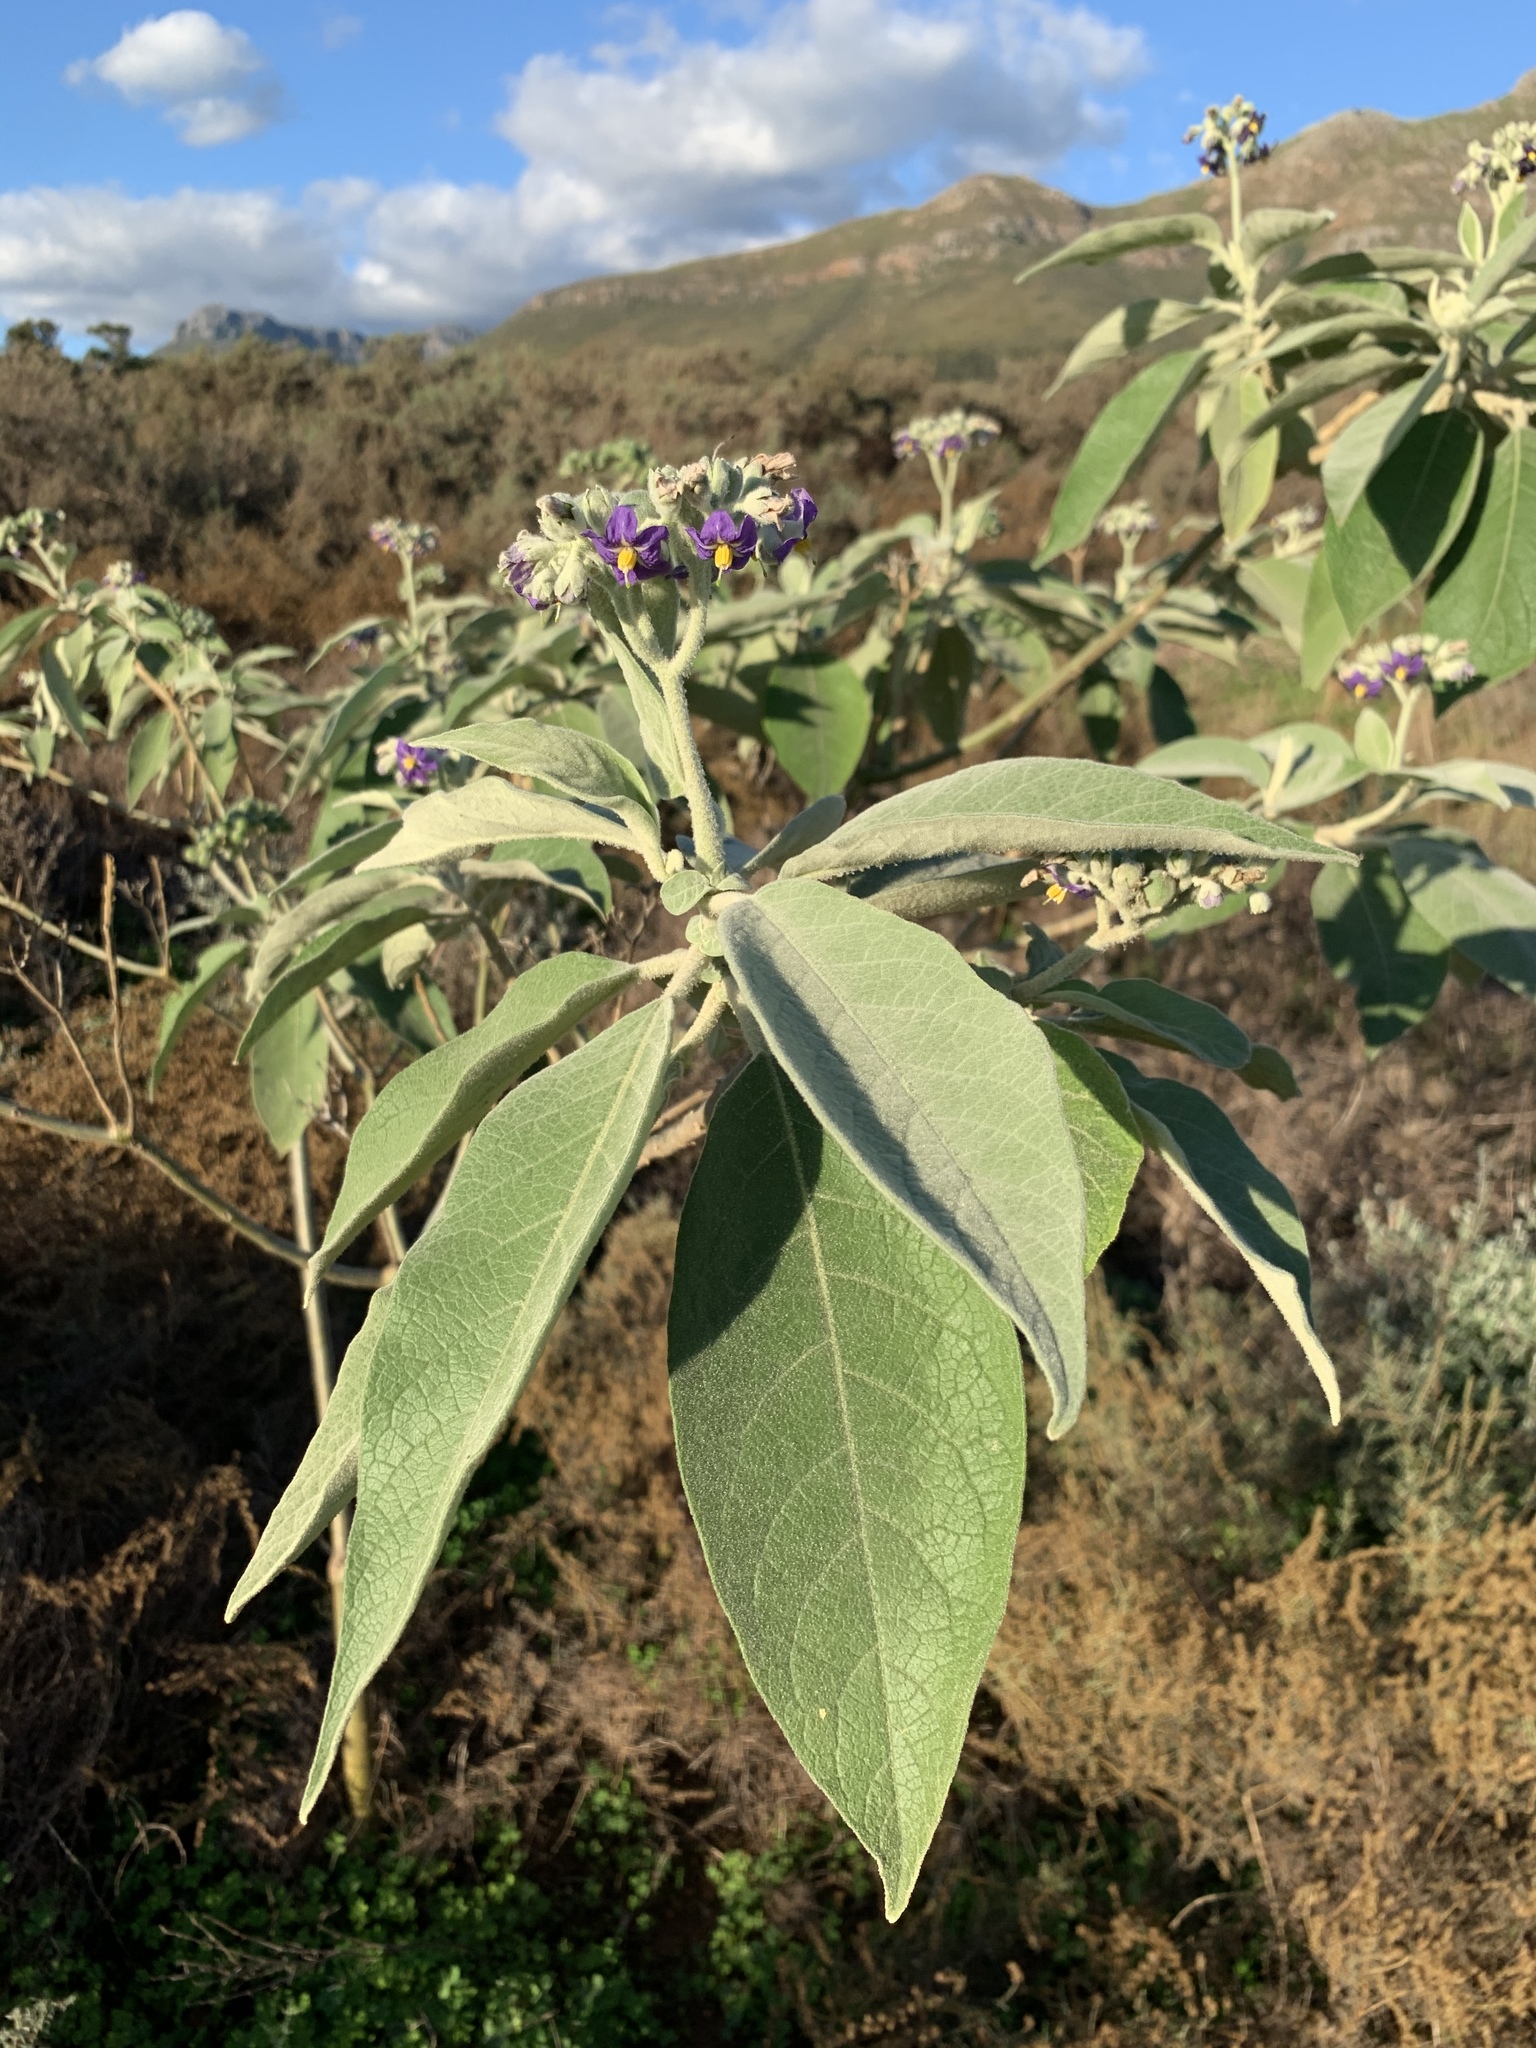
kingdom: Plantae
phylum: Tracheophyta
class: Magnoliopsida
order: Solanales
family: Solanaceae
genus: Solanum
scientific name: Solanum mauritianum
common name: Earleaf nightshade
